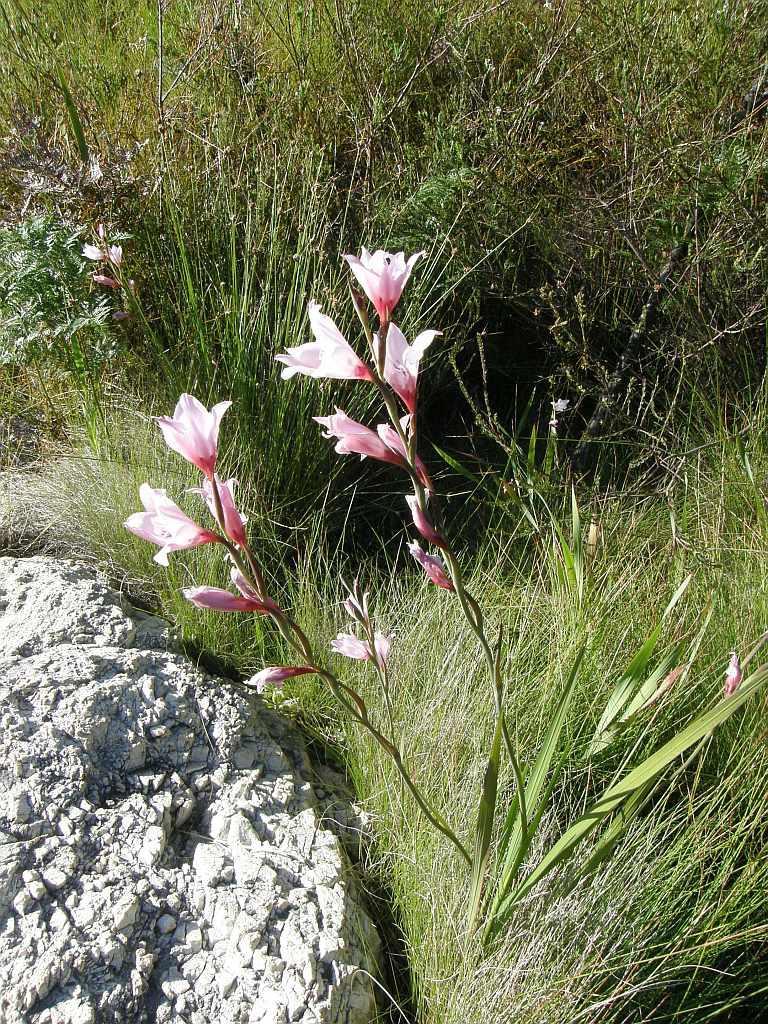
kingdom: Plantae
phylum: Tracheophyta
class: Liliopsida
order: Asparagales
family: Iridaceae
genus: Gladiolus
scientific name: Gladiolus carneus
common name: Painted-lady
